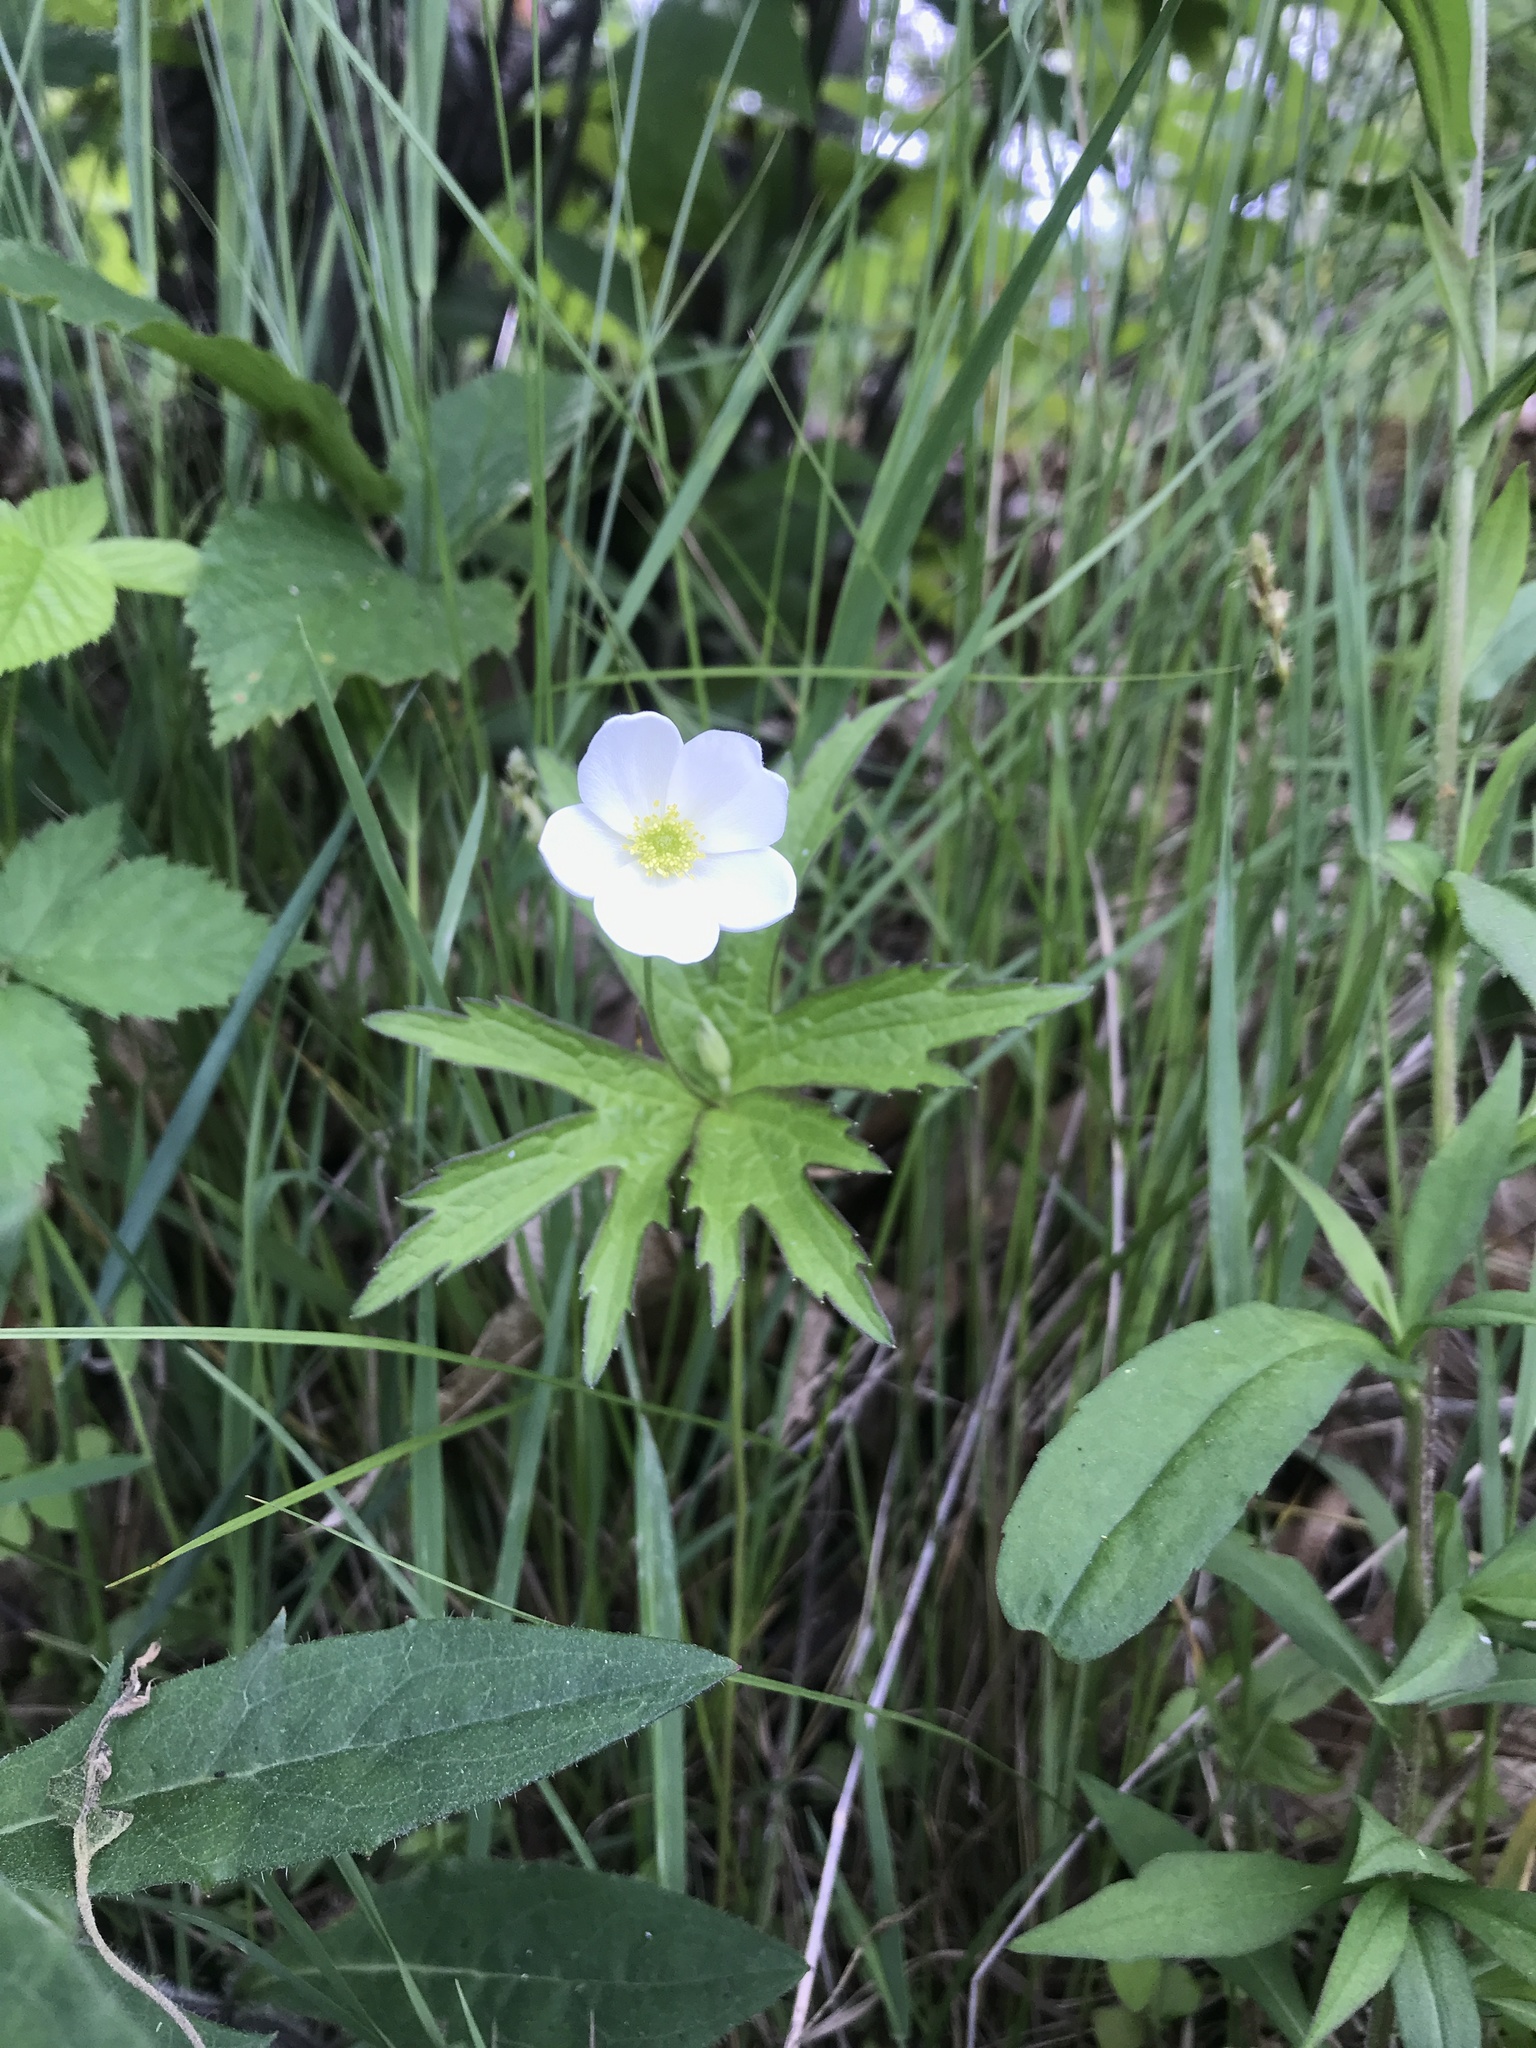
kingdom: Plantae
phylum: Tracheophyta
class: Magnoliopsida
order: Ranunculales
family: Ranunculaceae
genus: Anemonastrum
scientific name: Anemonastrum canadense
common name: Canada anemone
